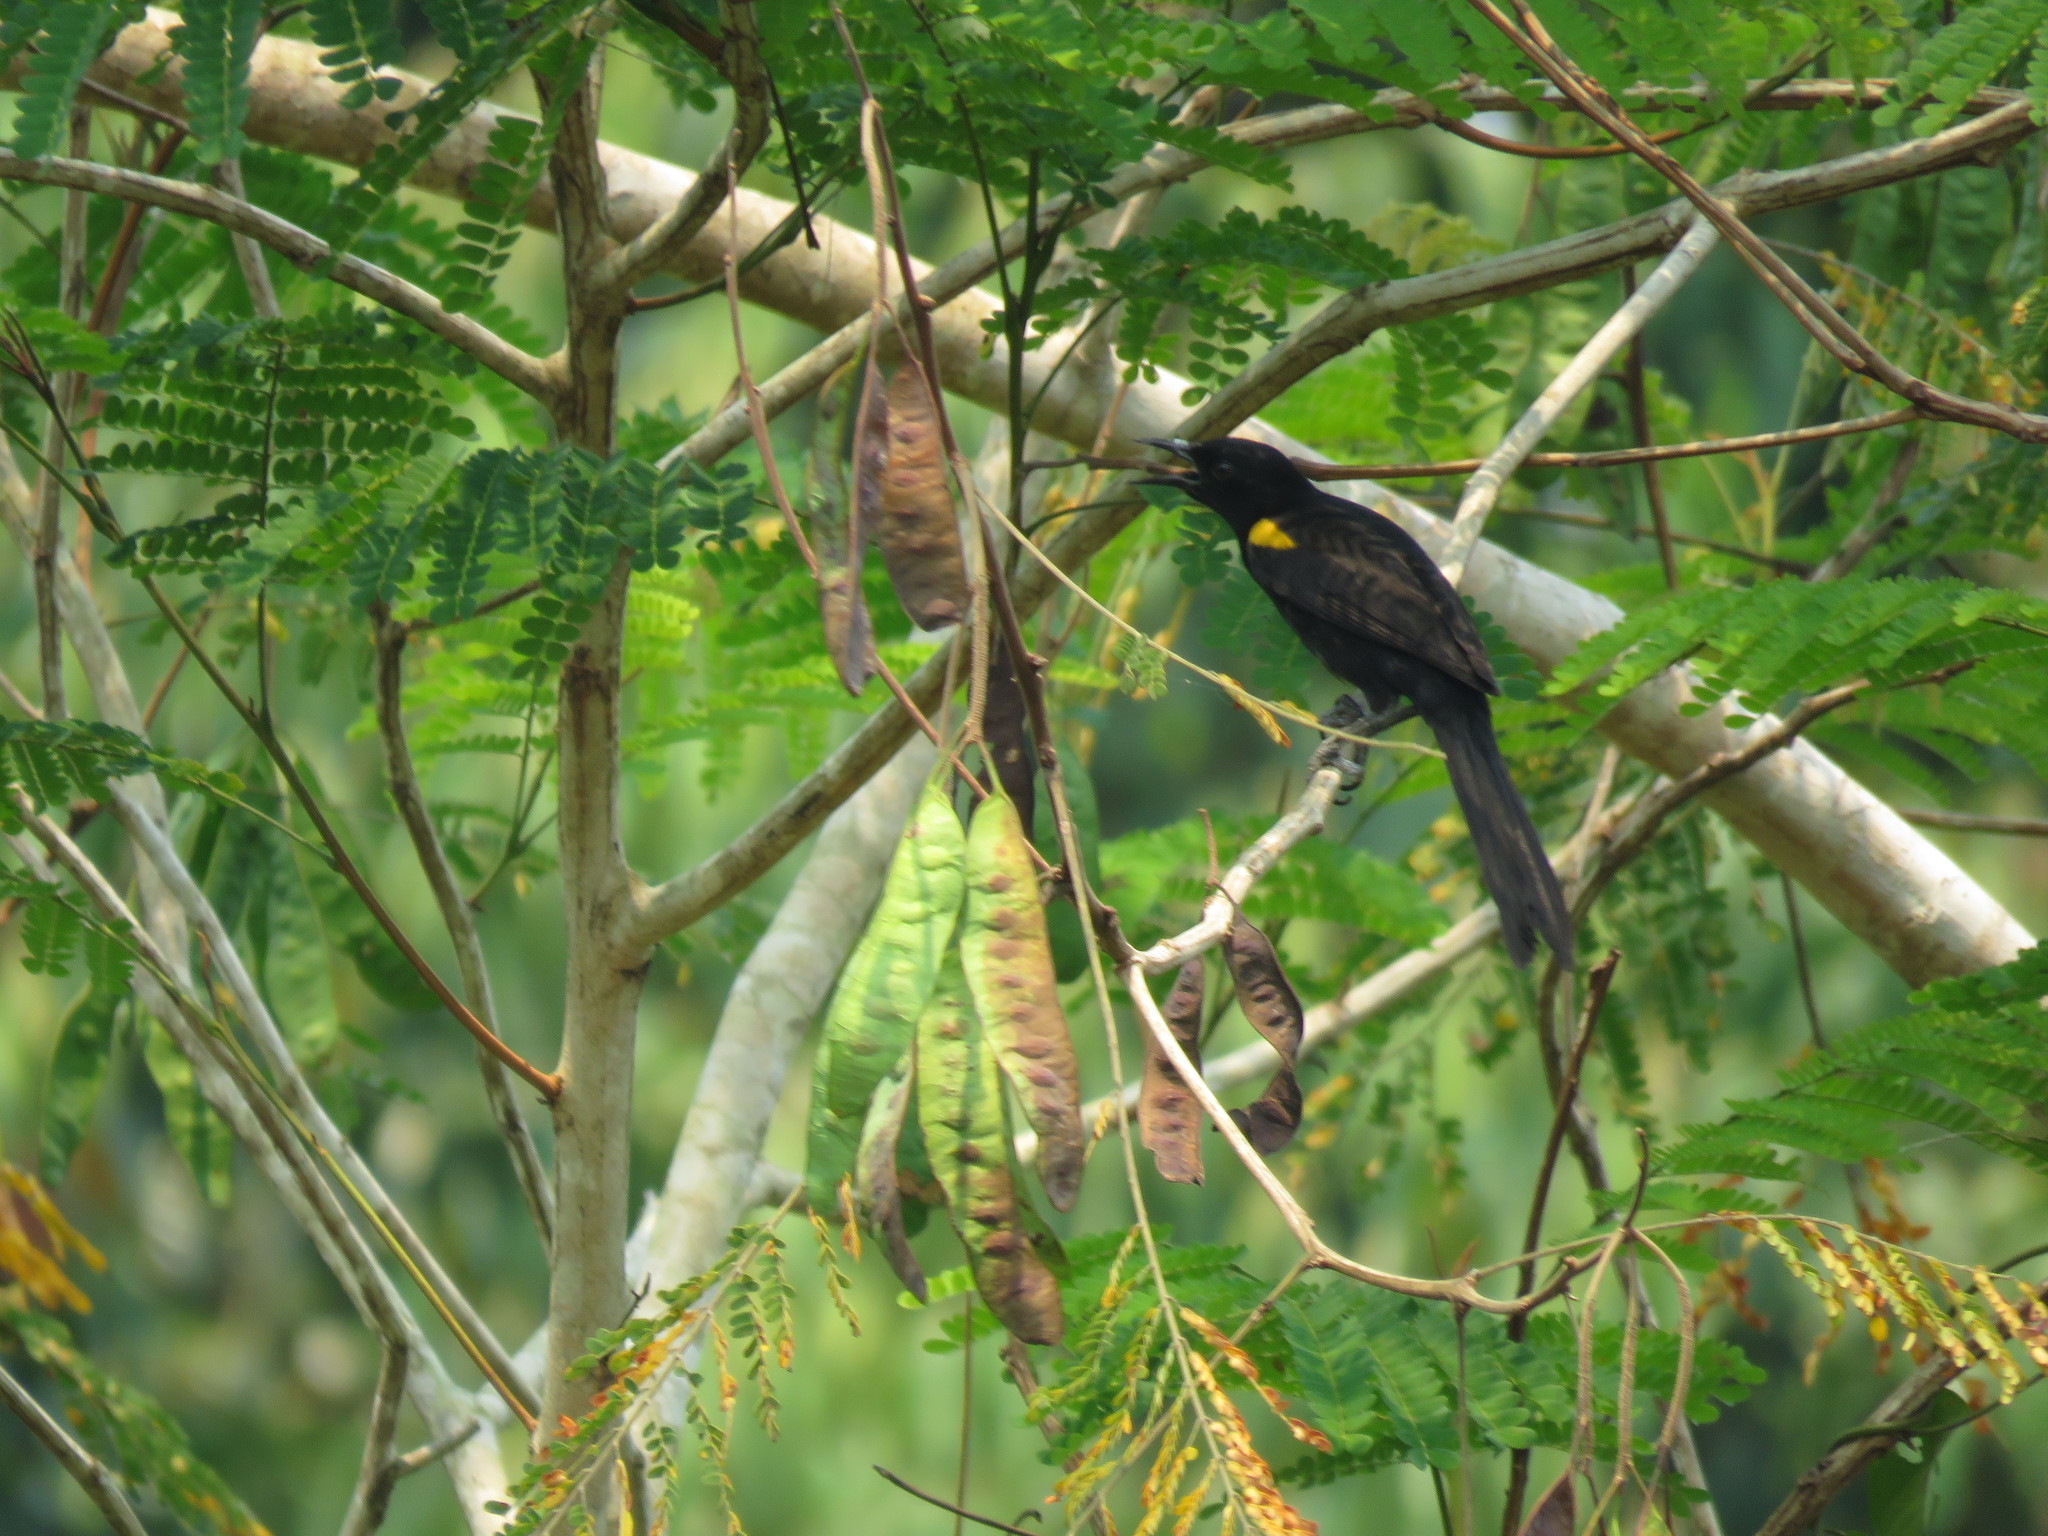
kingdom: Animalia
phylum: Chordata
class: Aves
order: Passeriformes
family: Icteridae
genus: Icterus
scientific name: Icterus cayanensis
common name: Epaulet oriole
